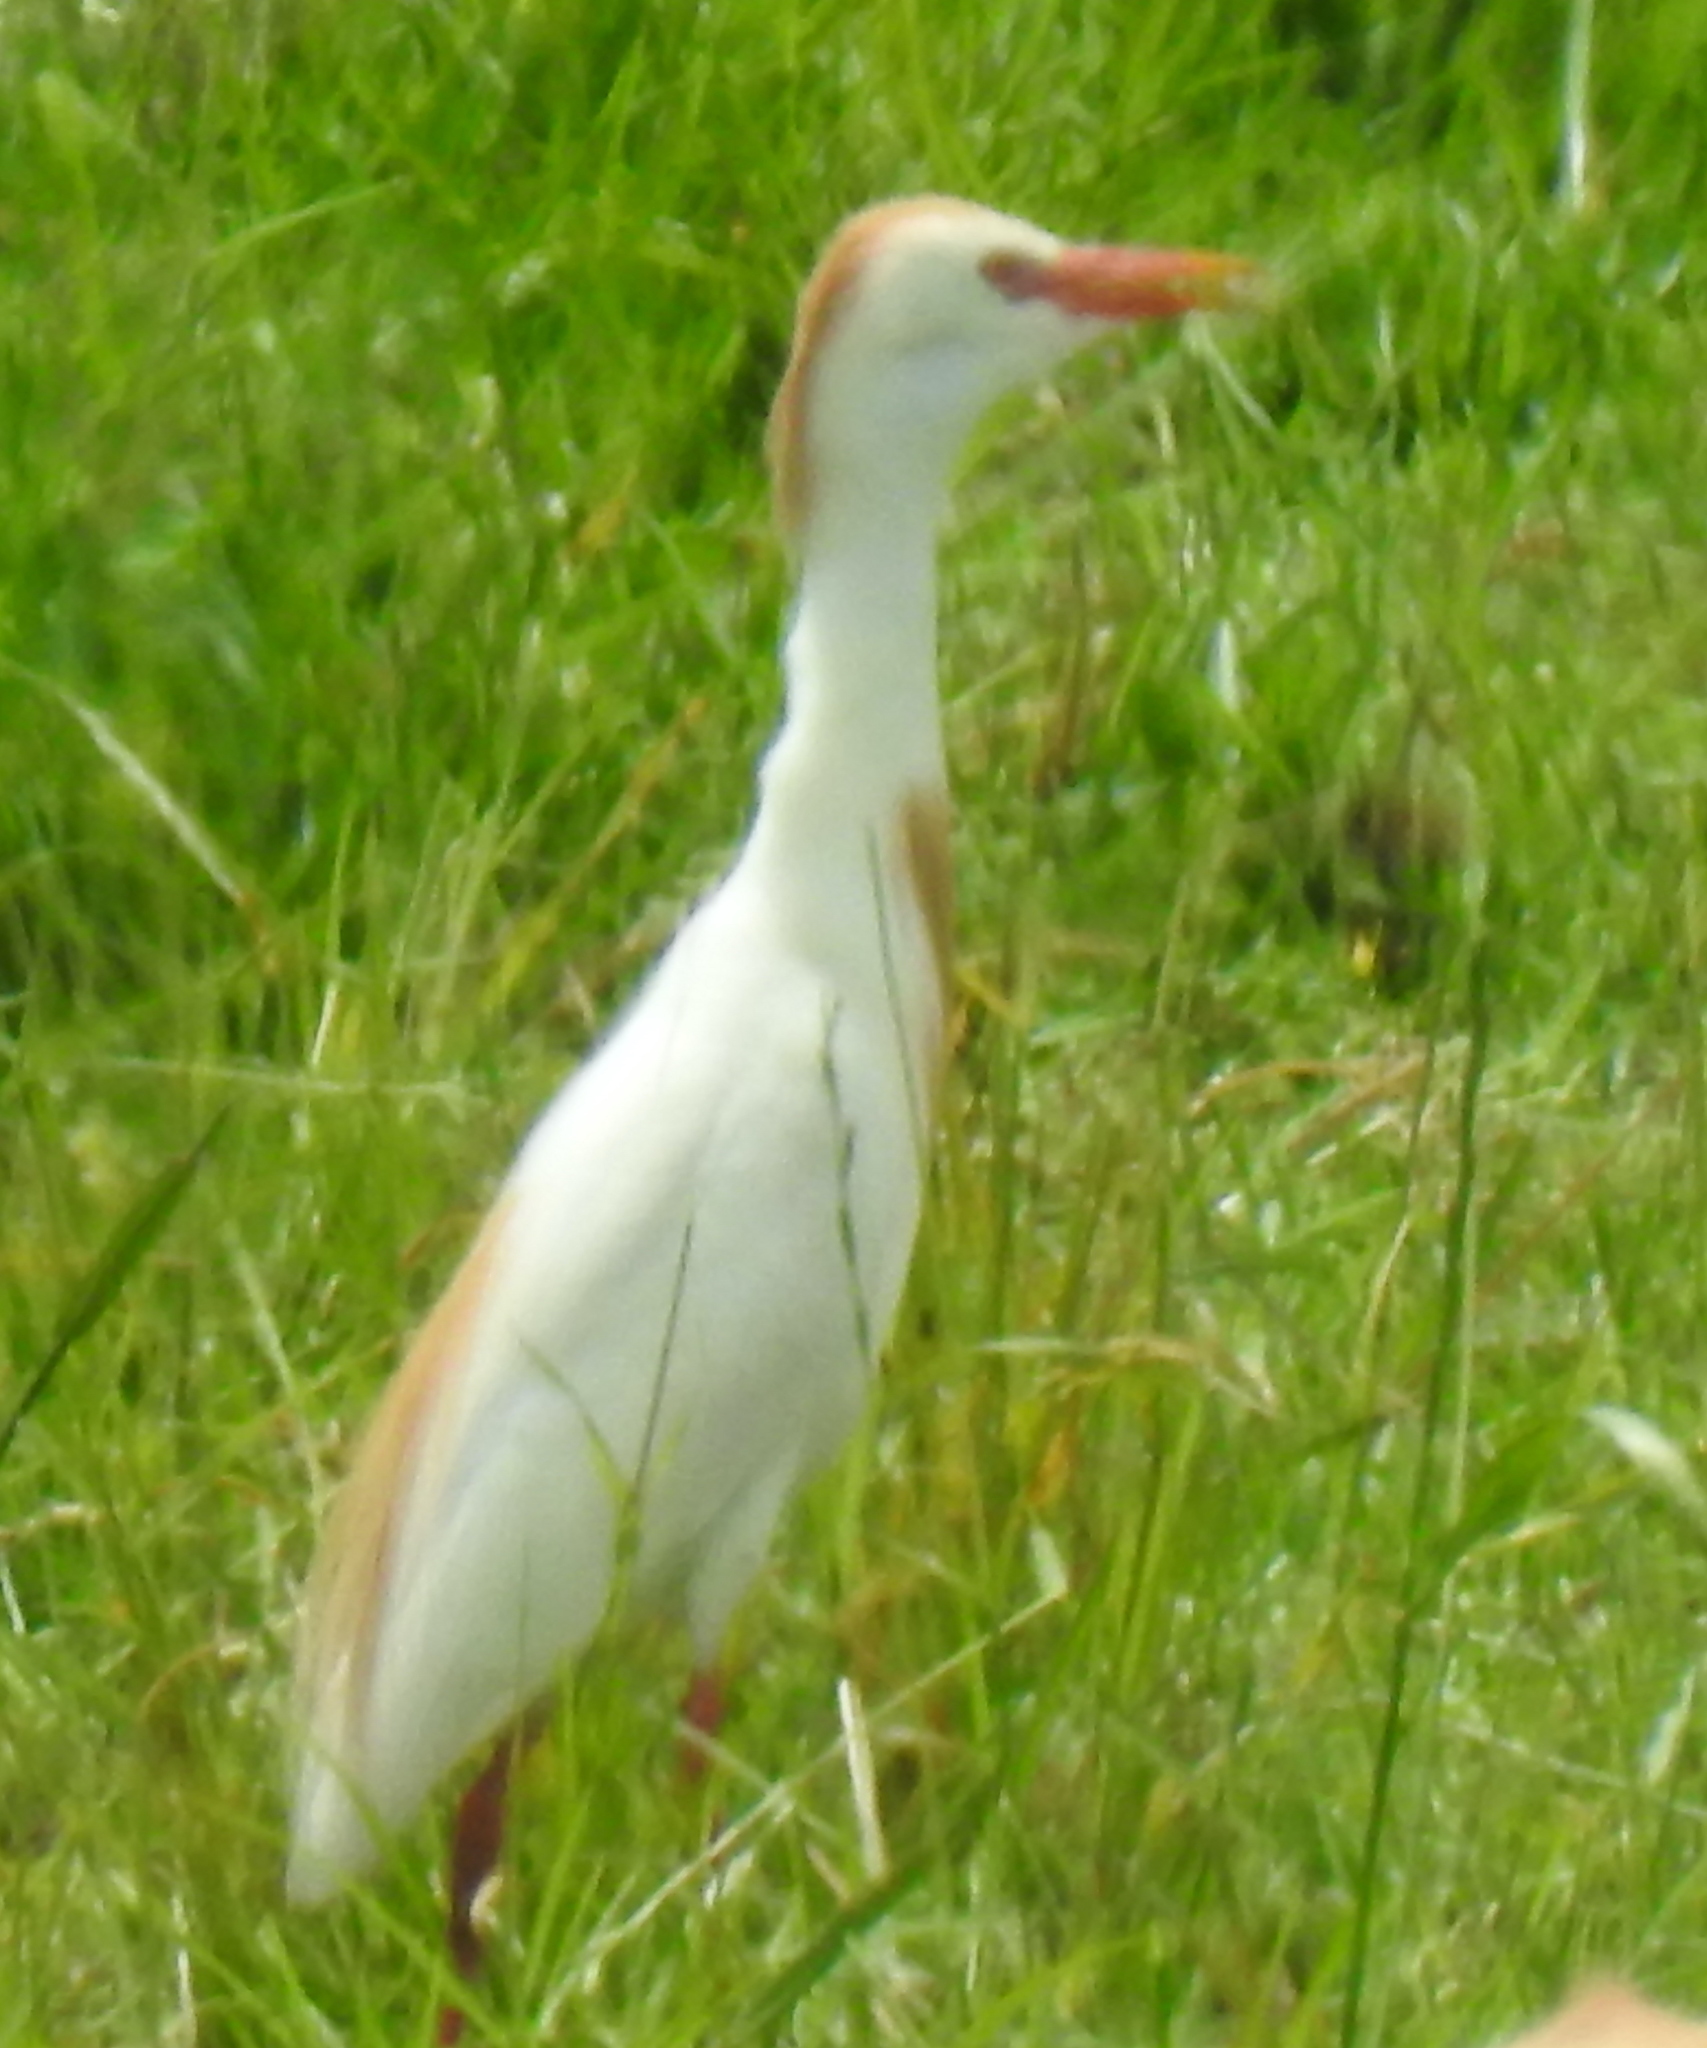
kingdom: Animalia
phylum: Chordata
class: Aves
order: Pelecaniformes
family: Ardeidae
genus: Bubulcus
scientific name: Bubulcus ibis
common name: Cattle egret
